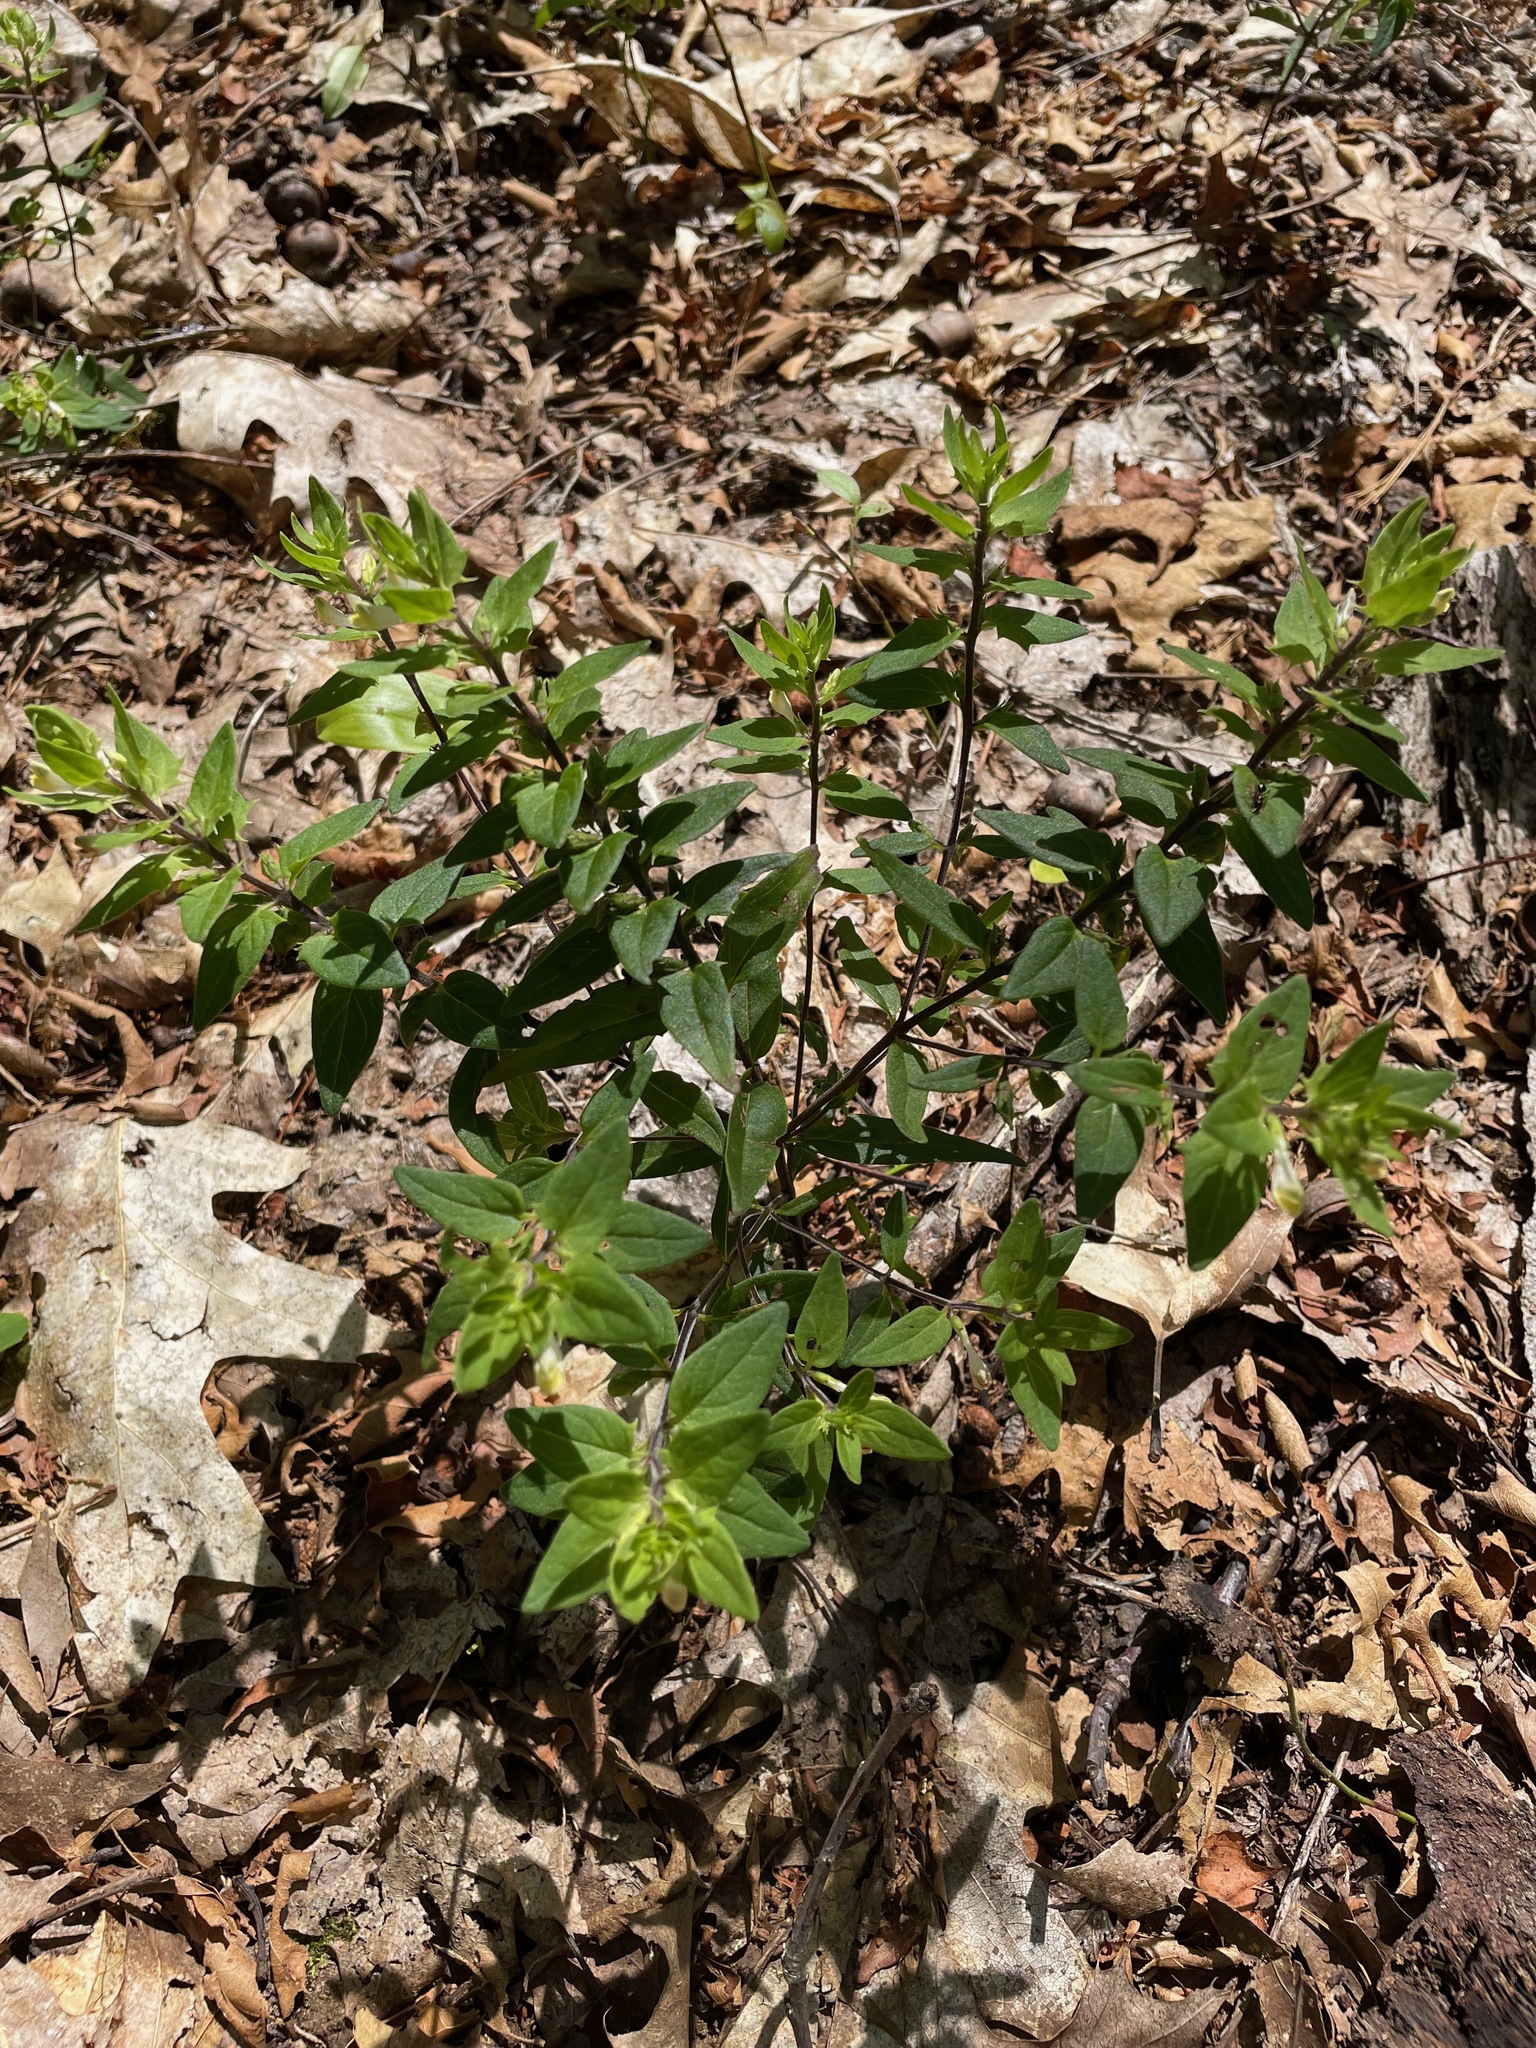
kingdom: Plantae
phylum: Tracheophyta
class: Magnoliopsida
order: Lamiales
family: Orobanchaceae
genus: Melampyrum
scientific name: Melampyrum lineare
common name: American cow-wheat
